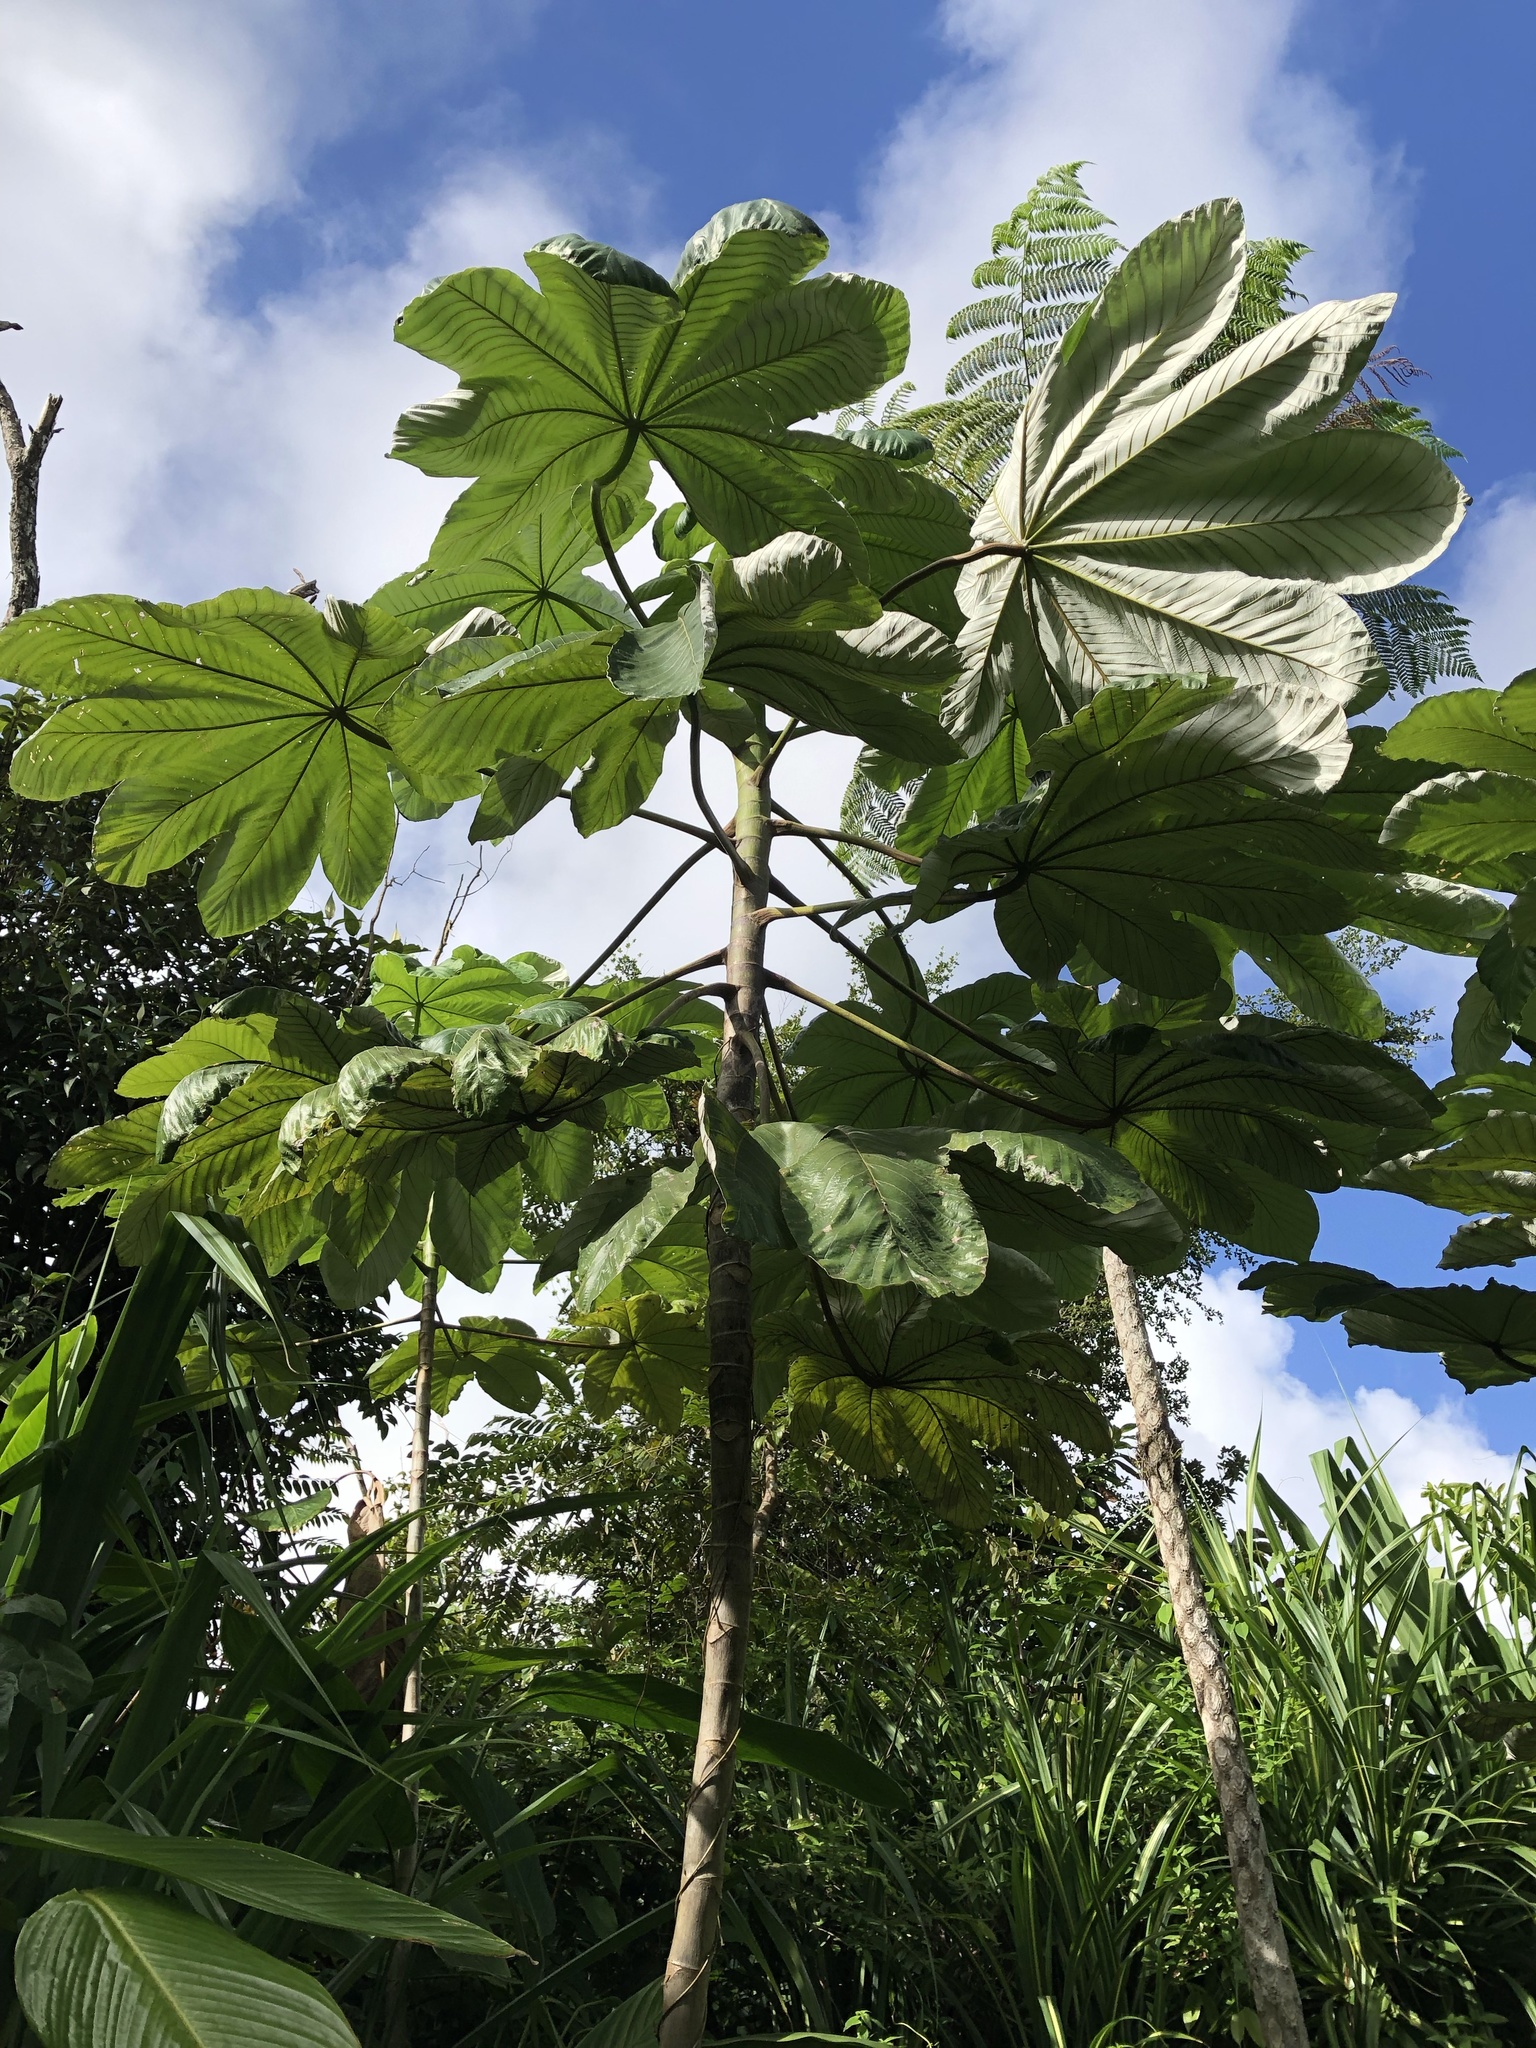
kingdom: Plantae
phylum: Tracheophyta
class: Magnoliopsida
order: Rosales
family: Urticaceae
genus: Cecropia
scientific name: Cecropia schreberiana
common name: Trumpet tree
